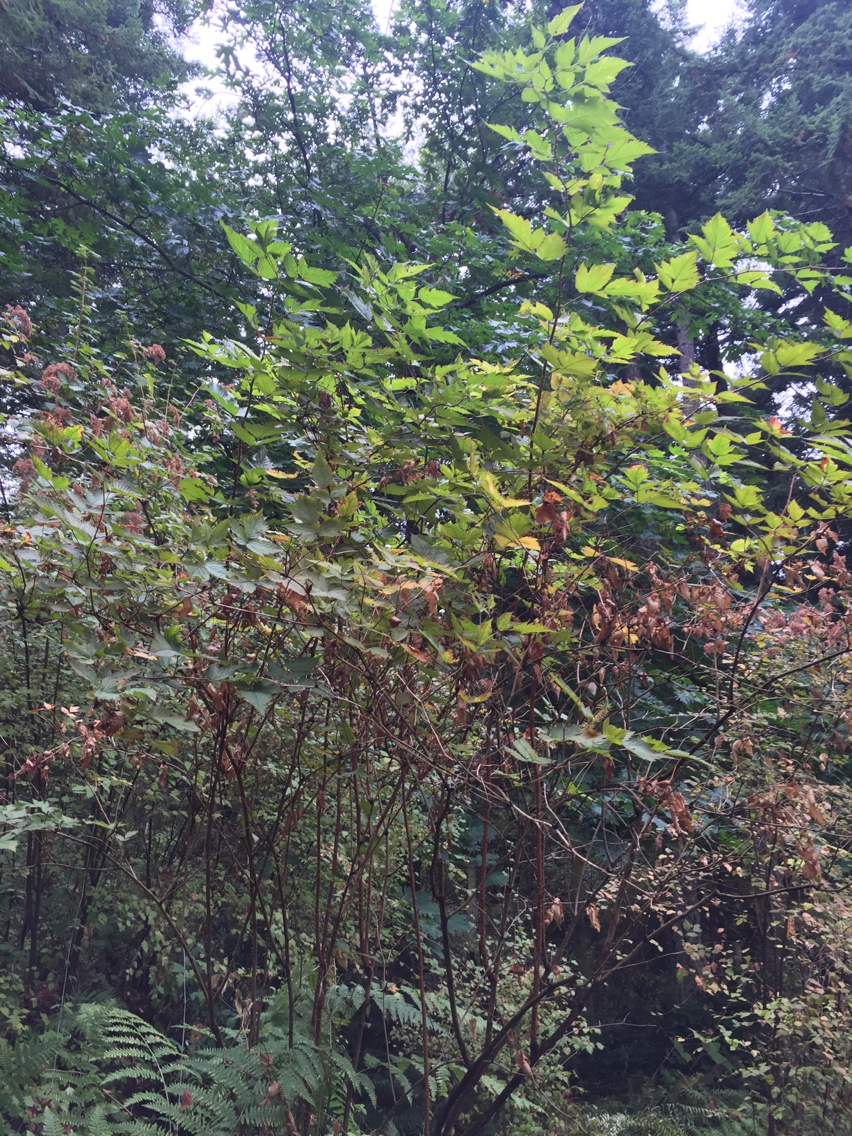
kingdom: Plantae
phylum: Tracheophyta
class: Magnoliopsida
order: Rosales
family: Rosaceae
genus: Rubus
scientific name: Rubus spectabilis
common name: Salmonberry
